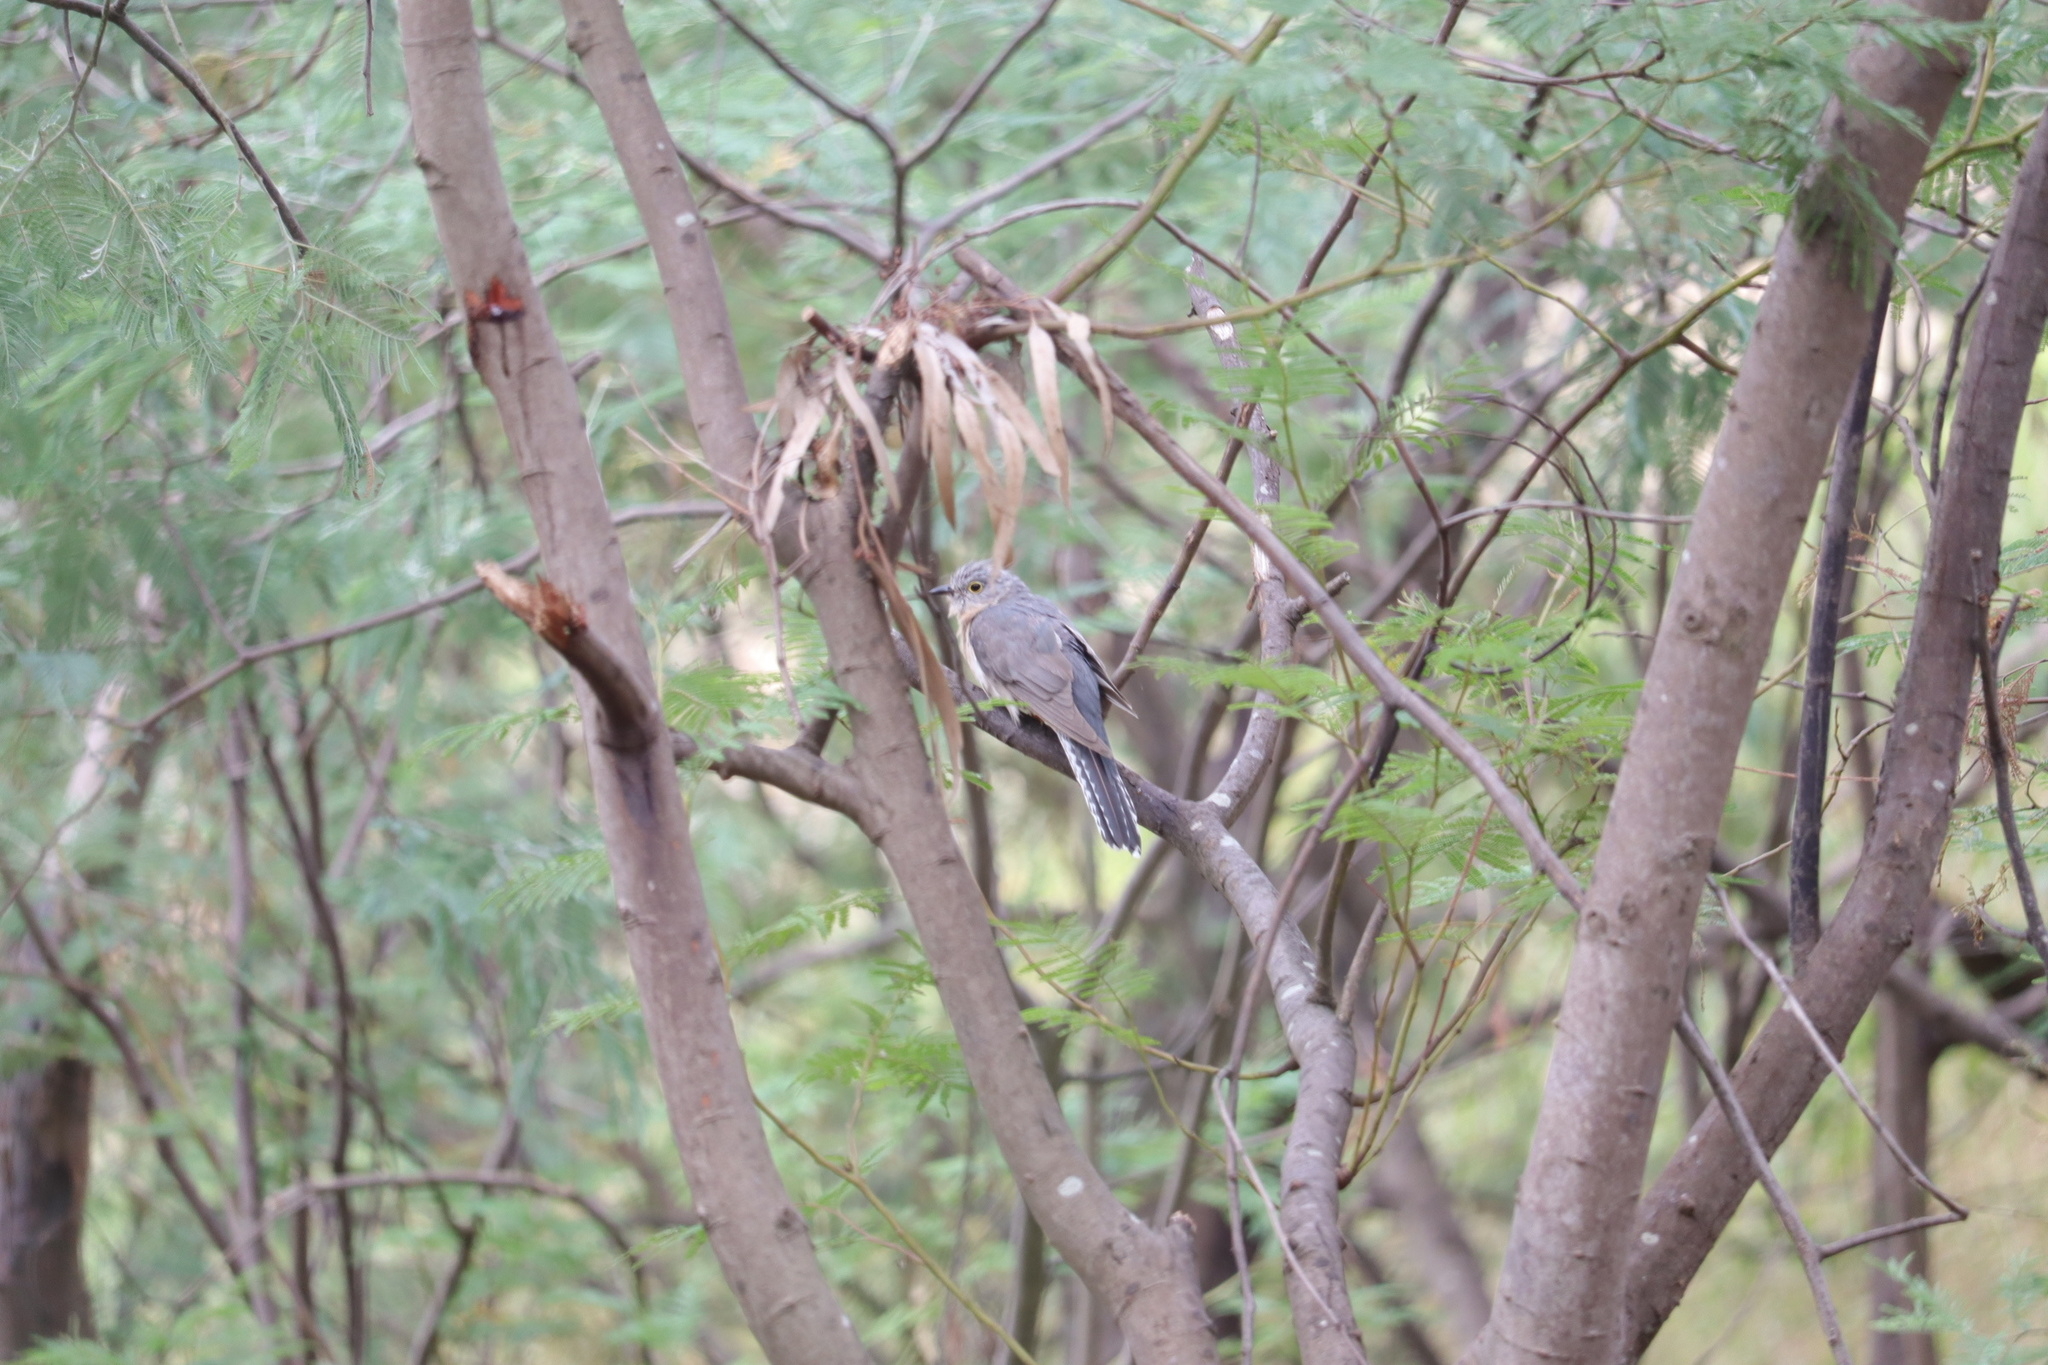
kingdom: Animalia
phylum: Chordata
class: Aves
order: Cuculiformes
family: Cuculidae
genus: Cacomantis
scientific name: Cacomantis flabelliformis
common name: Fan-tailed cuckoo
